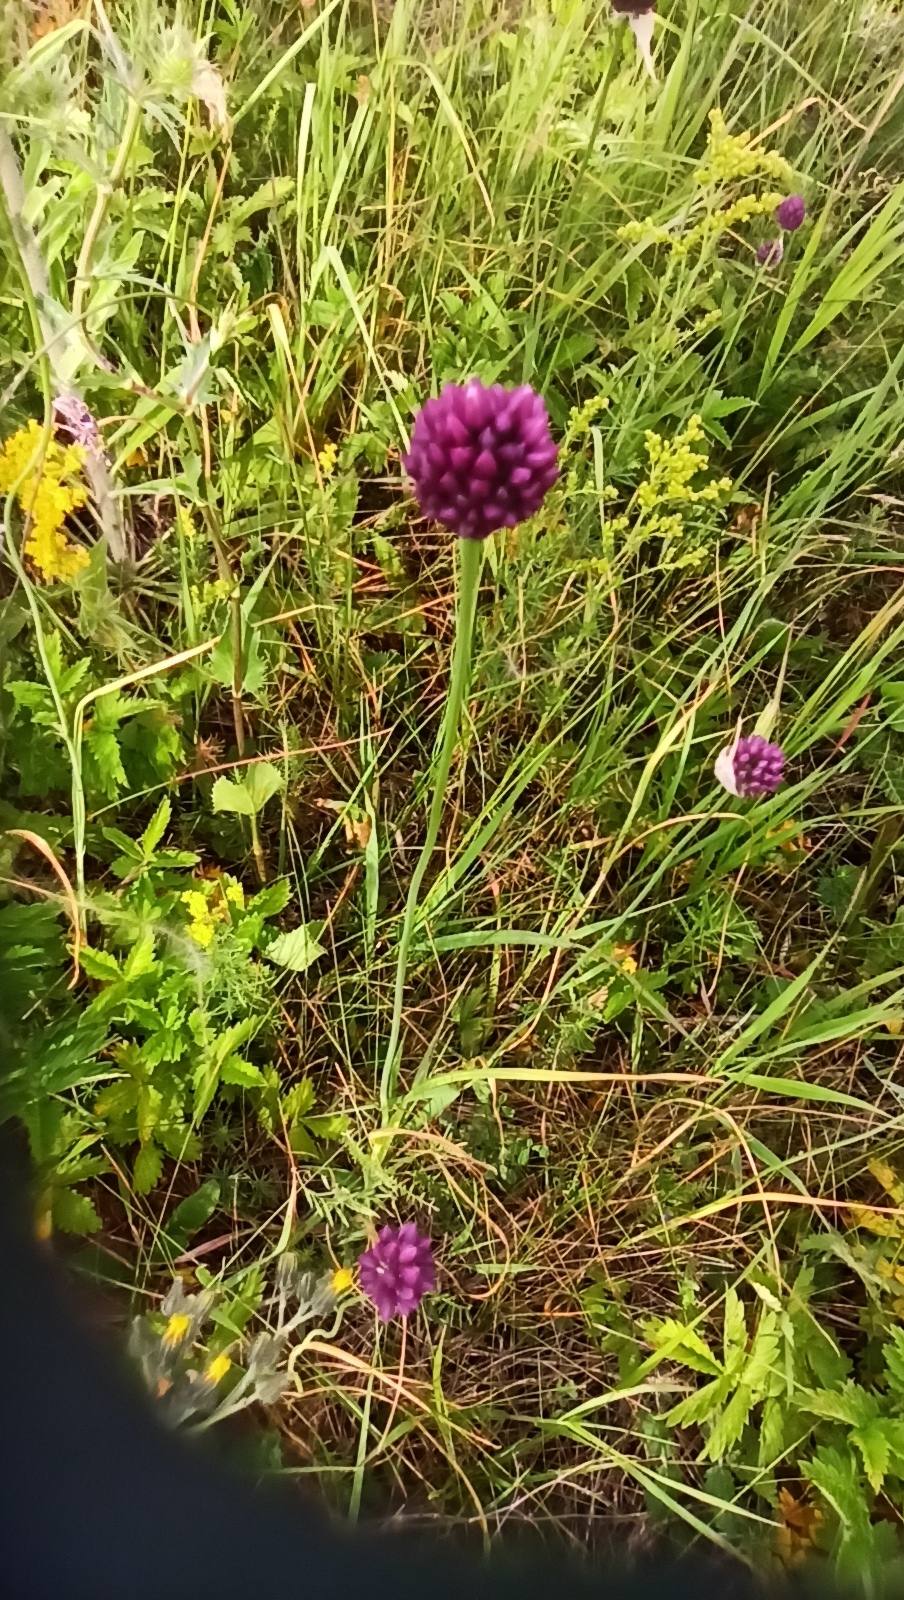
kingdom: Plantae
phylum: Tracheophyta
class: Liliopsida
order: Asparagales
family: Amaryllidaceae
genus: Allium
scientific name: Allium rotundum
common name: Sand leek
